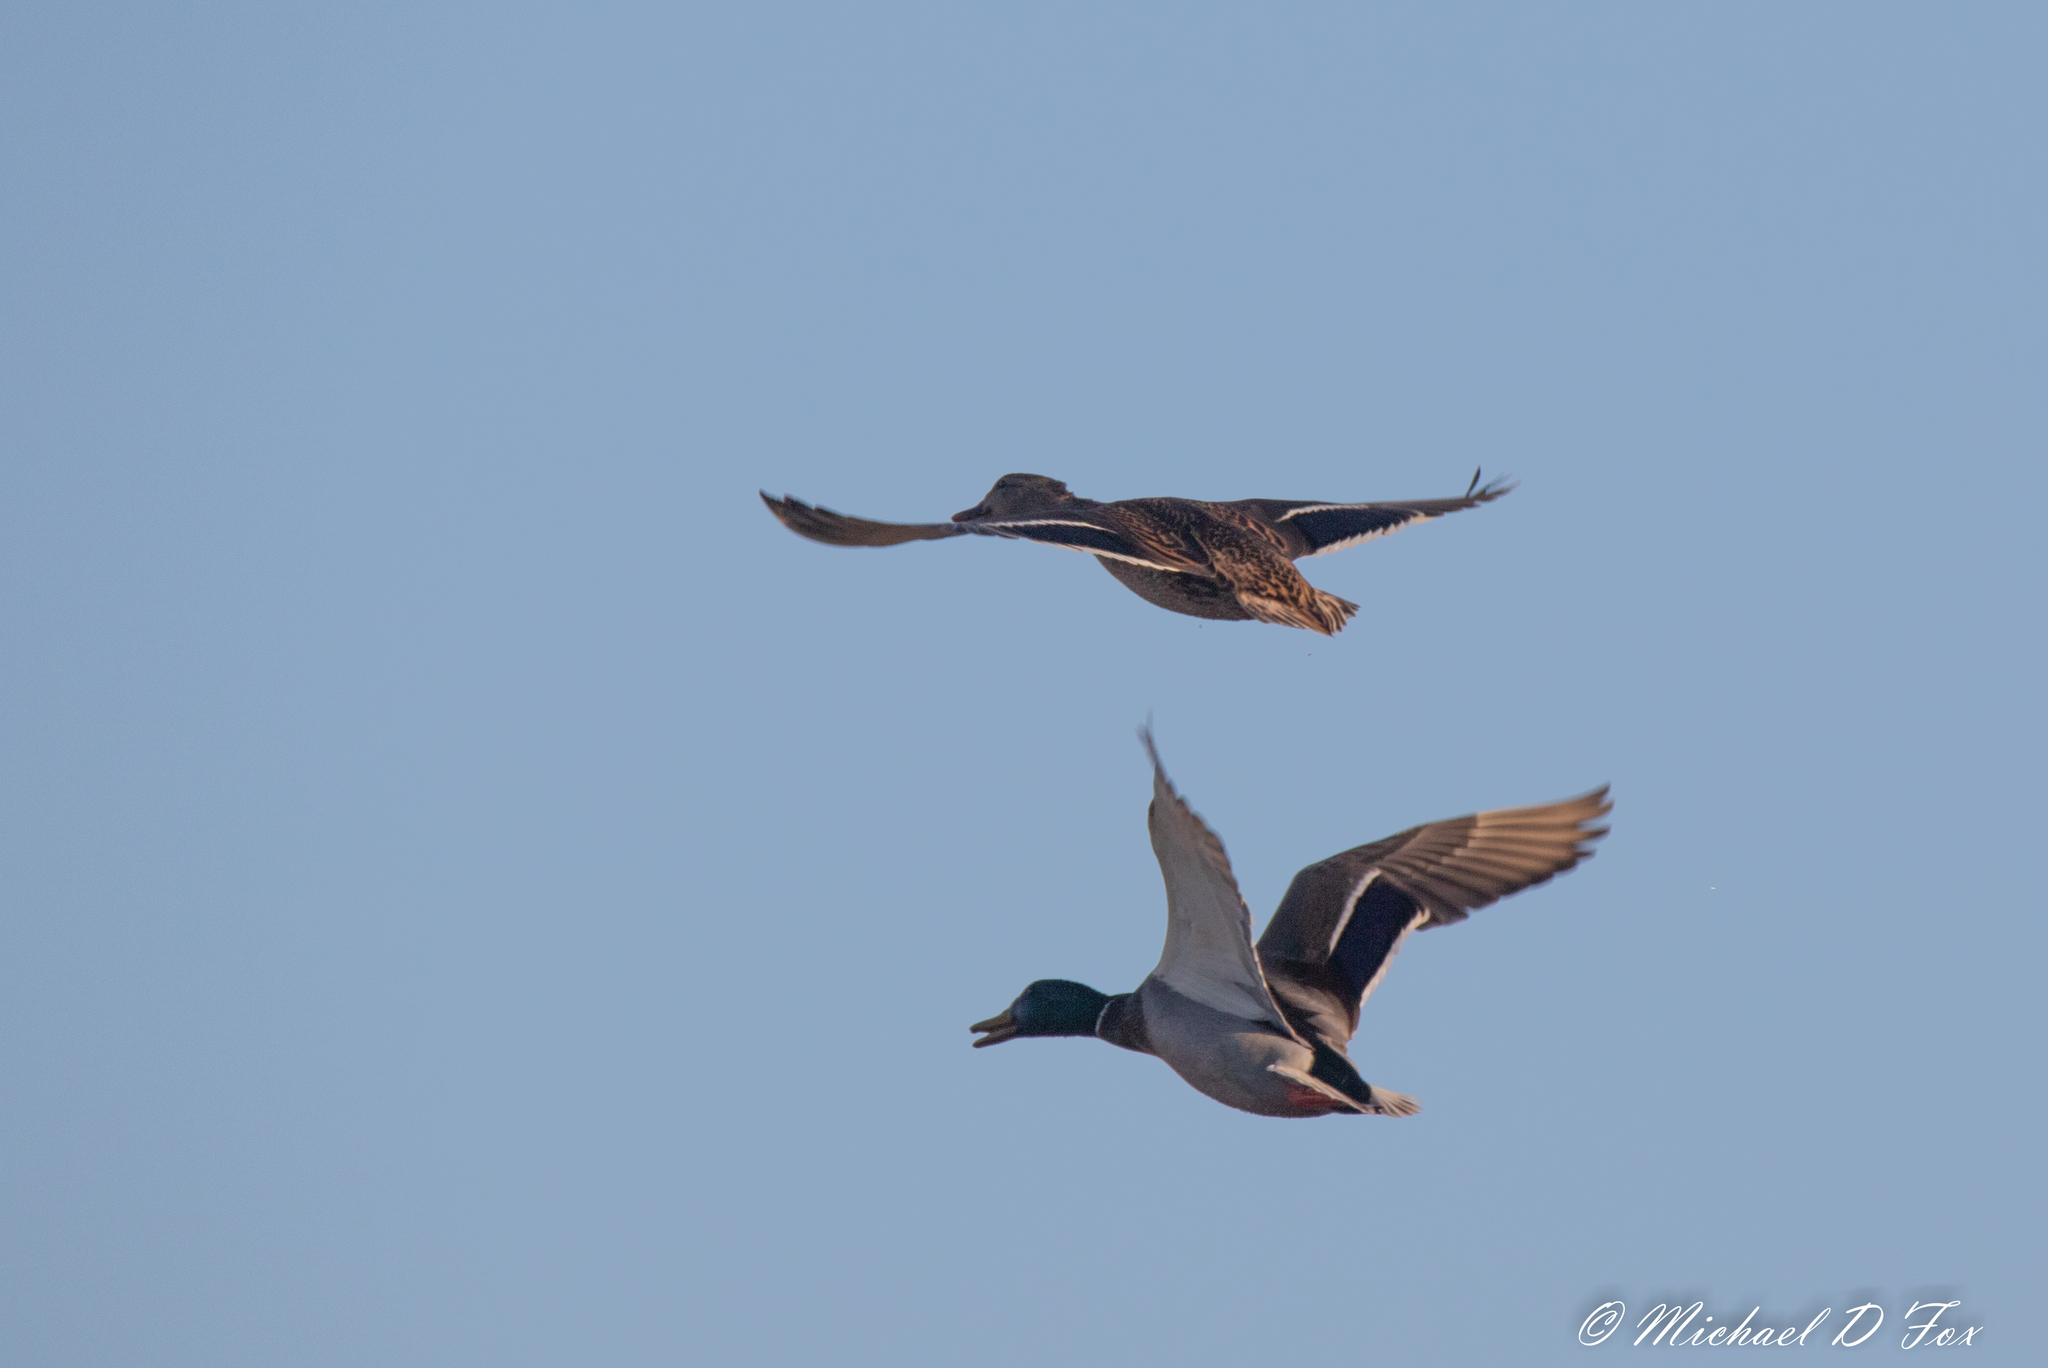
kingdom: Animalia
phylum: Chordata
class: Aves
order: Anseriformes
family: Anatidae
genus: Anas
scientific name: Anas platyrhynchos
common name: Mallard
